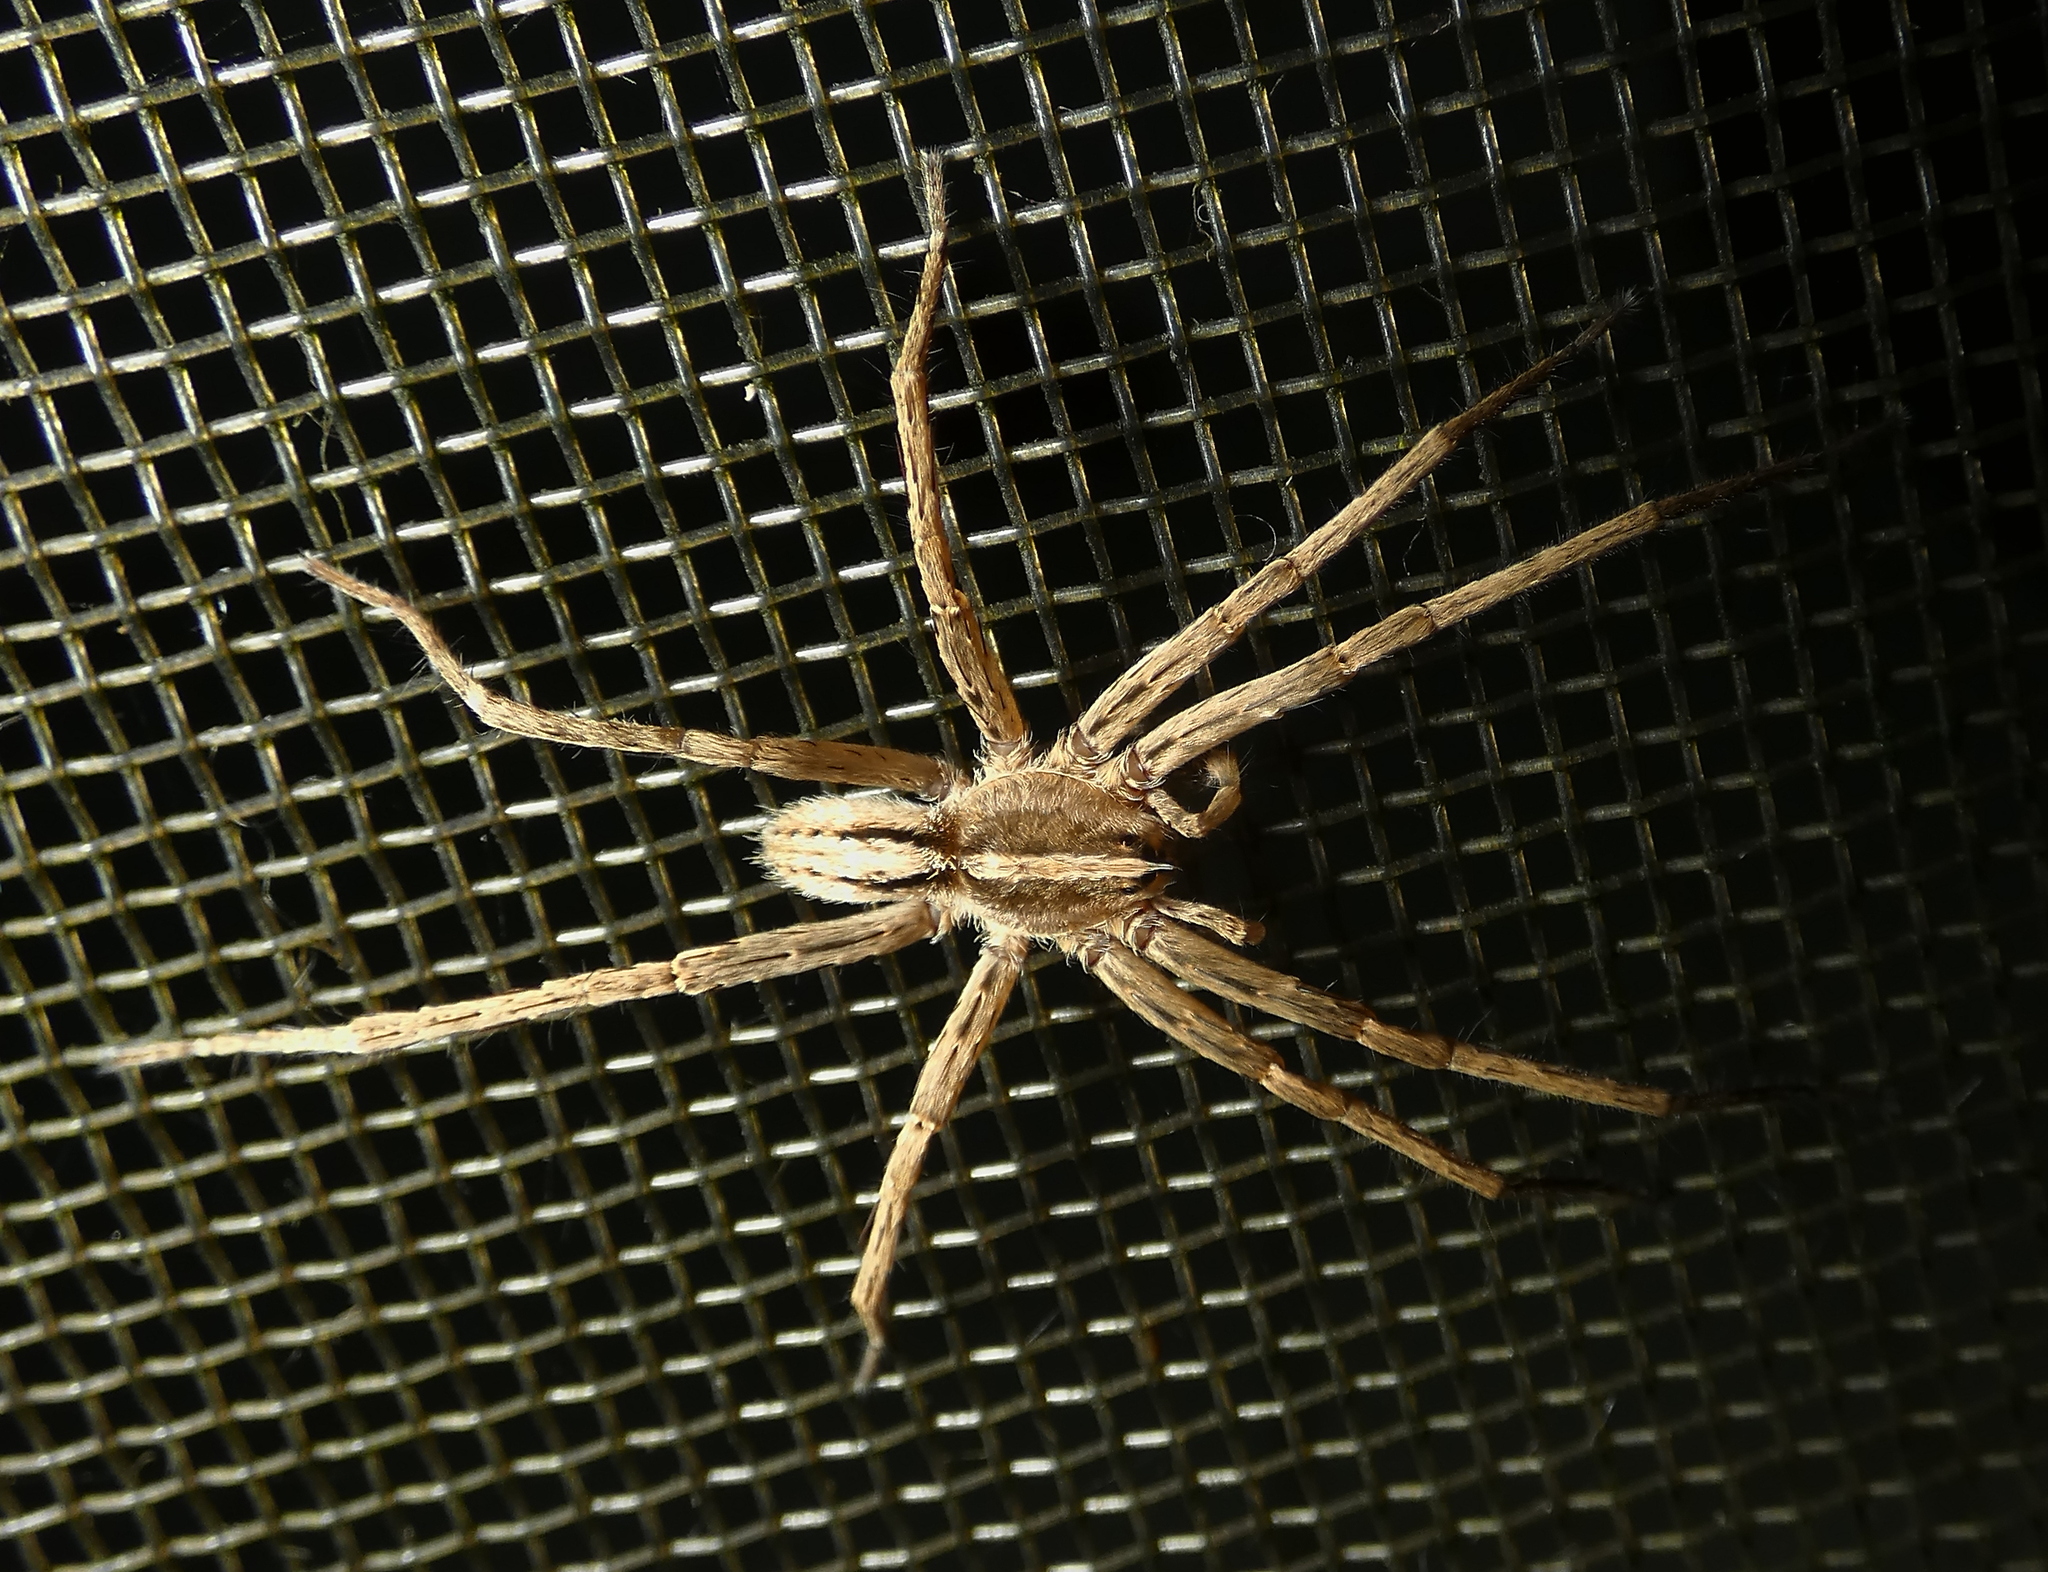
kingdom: Animalia
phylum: Arthropoda
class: Arachnida
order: Araneae
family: Ctenidae
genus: Parabatinga
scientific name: Parabatinga brevipes
